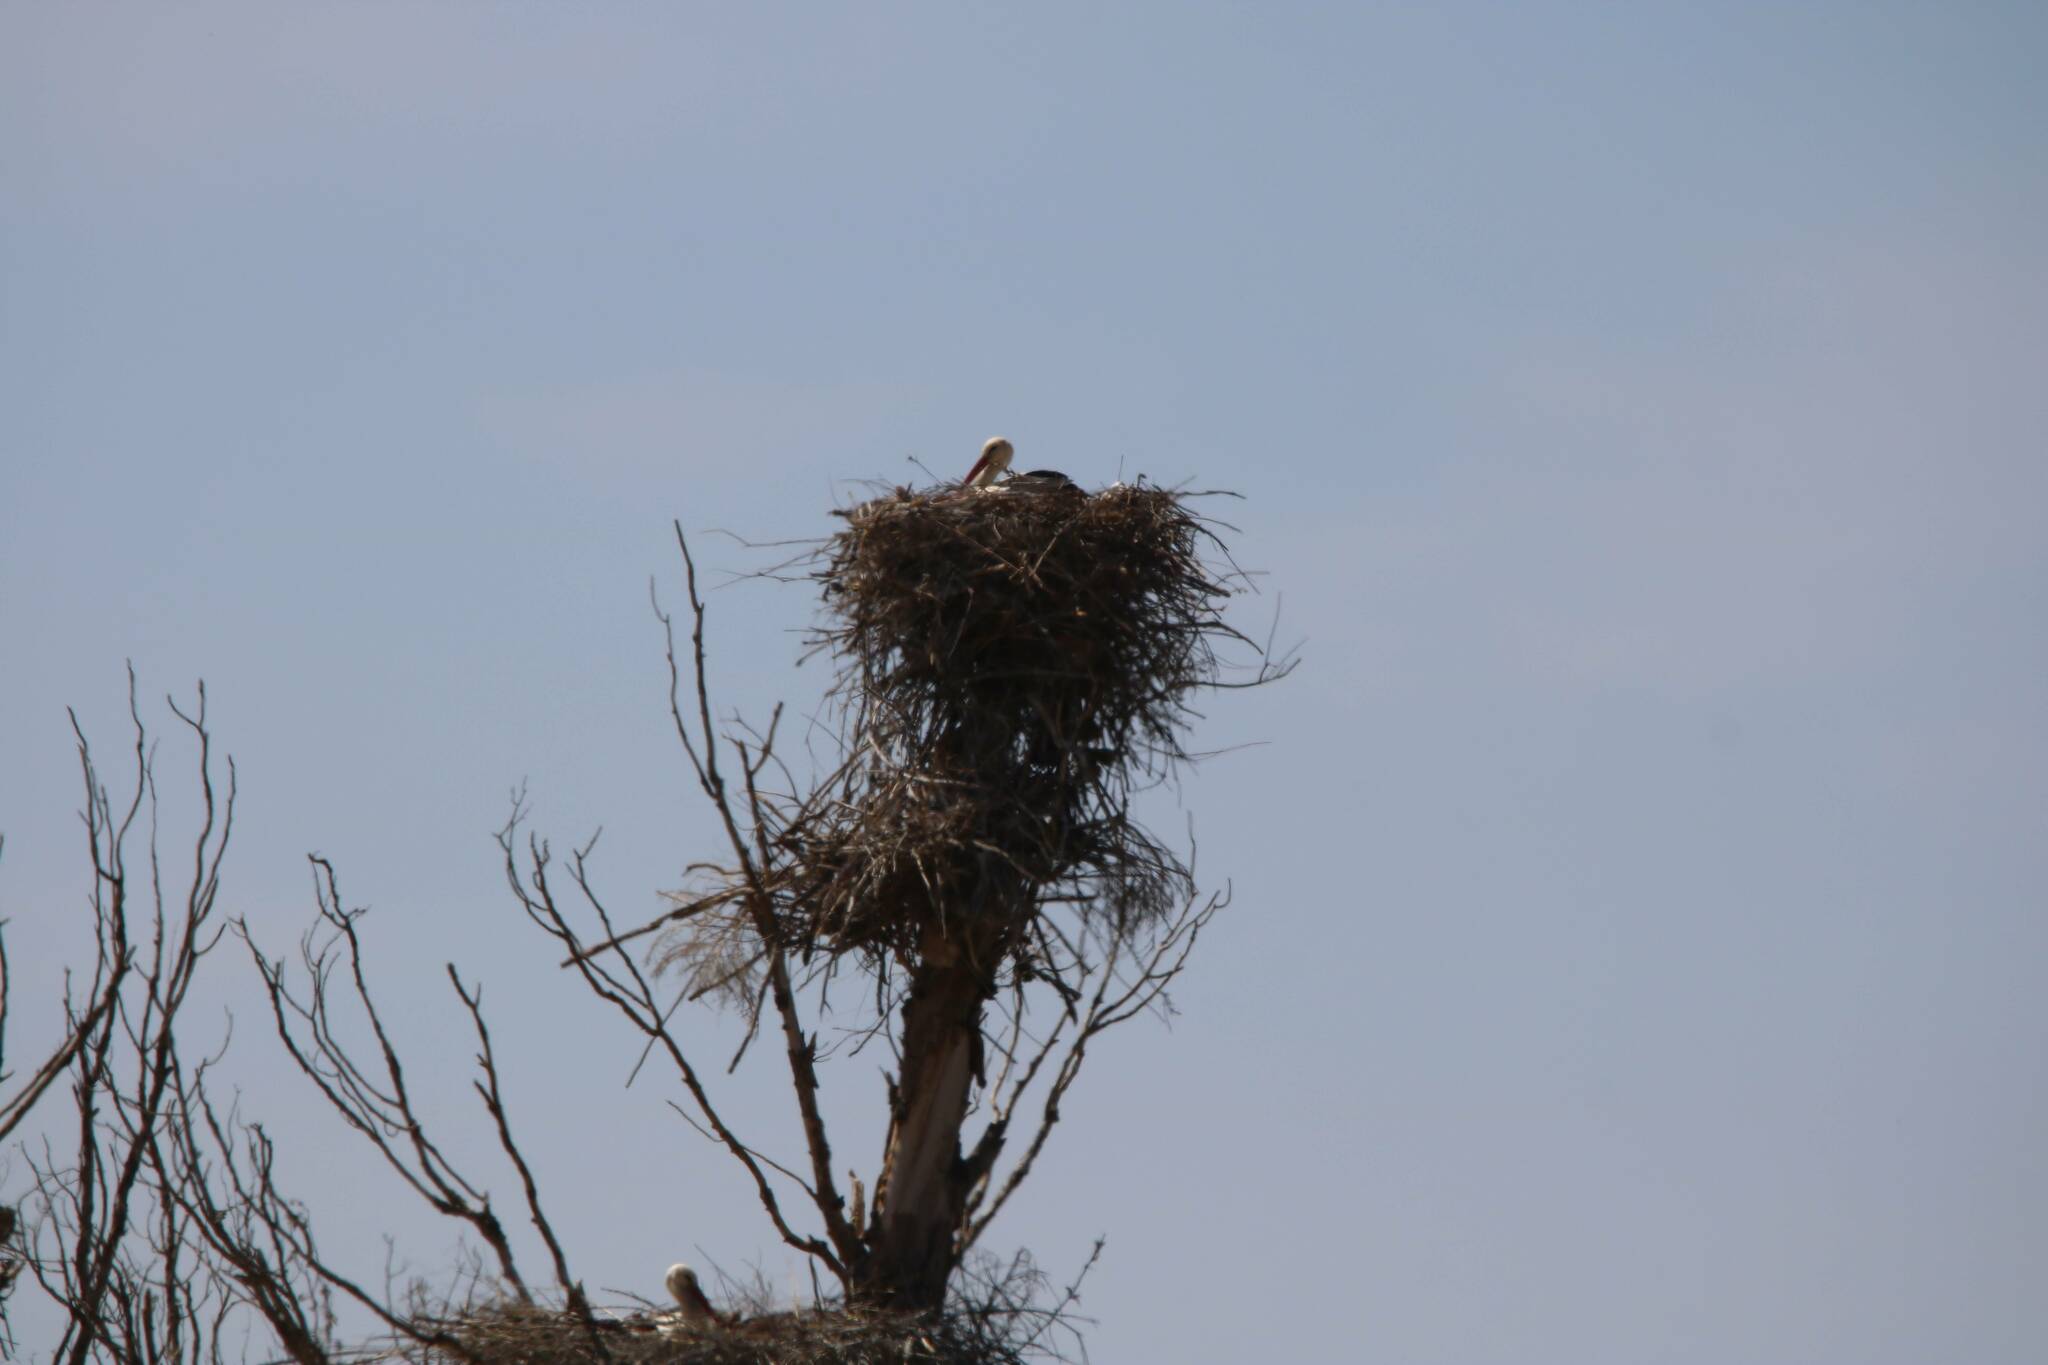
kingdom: Animalia
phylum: Chordata
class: Aves
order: Ciconiiformes
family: Ciconiidae
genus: Ciconia
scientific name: Ciconia ciconia
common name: White stork
